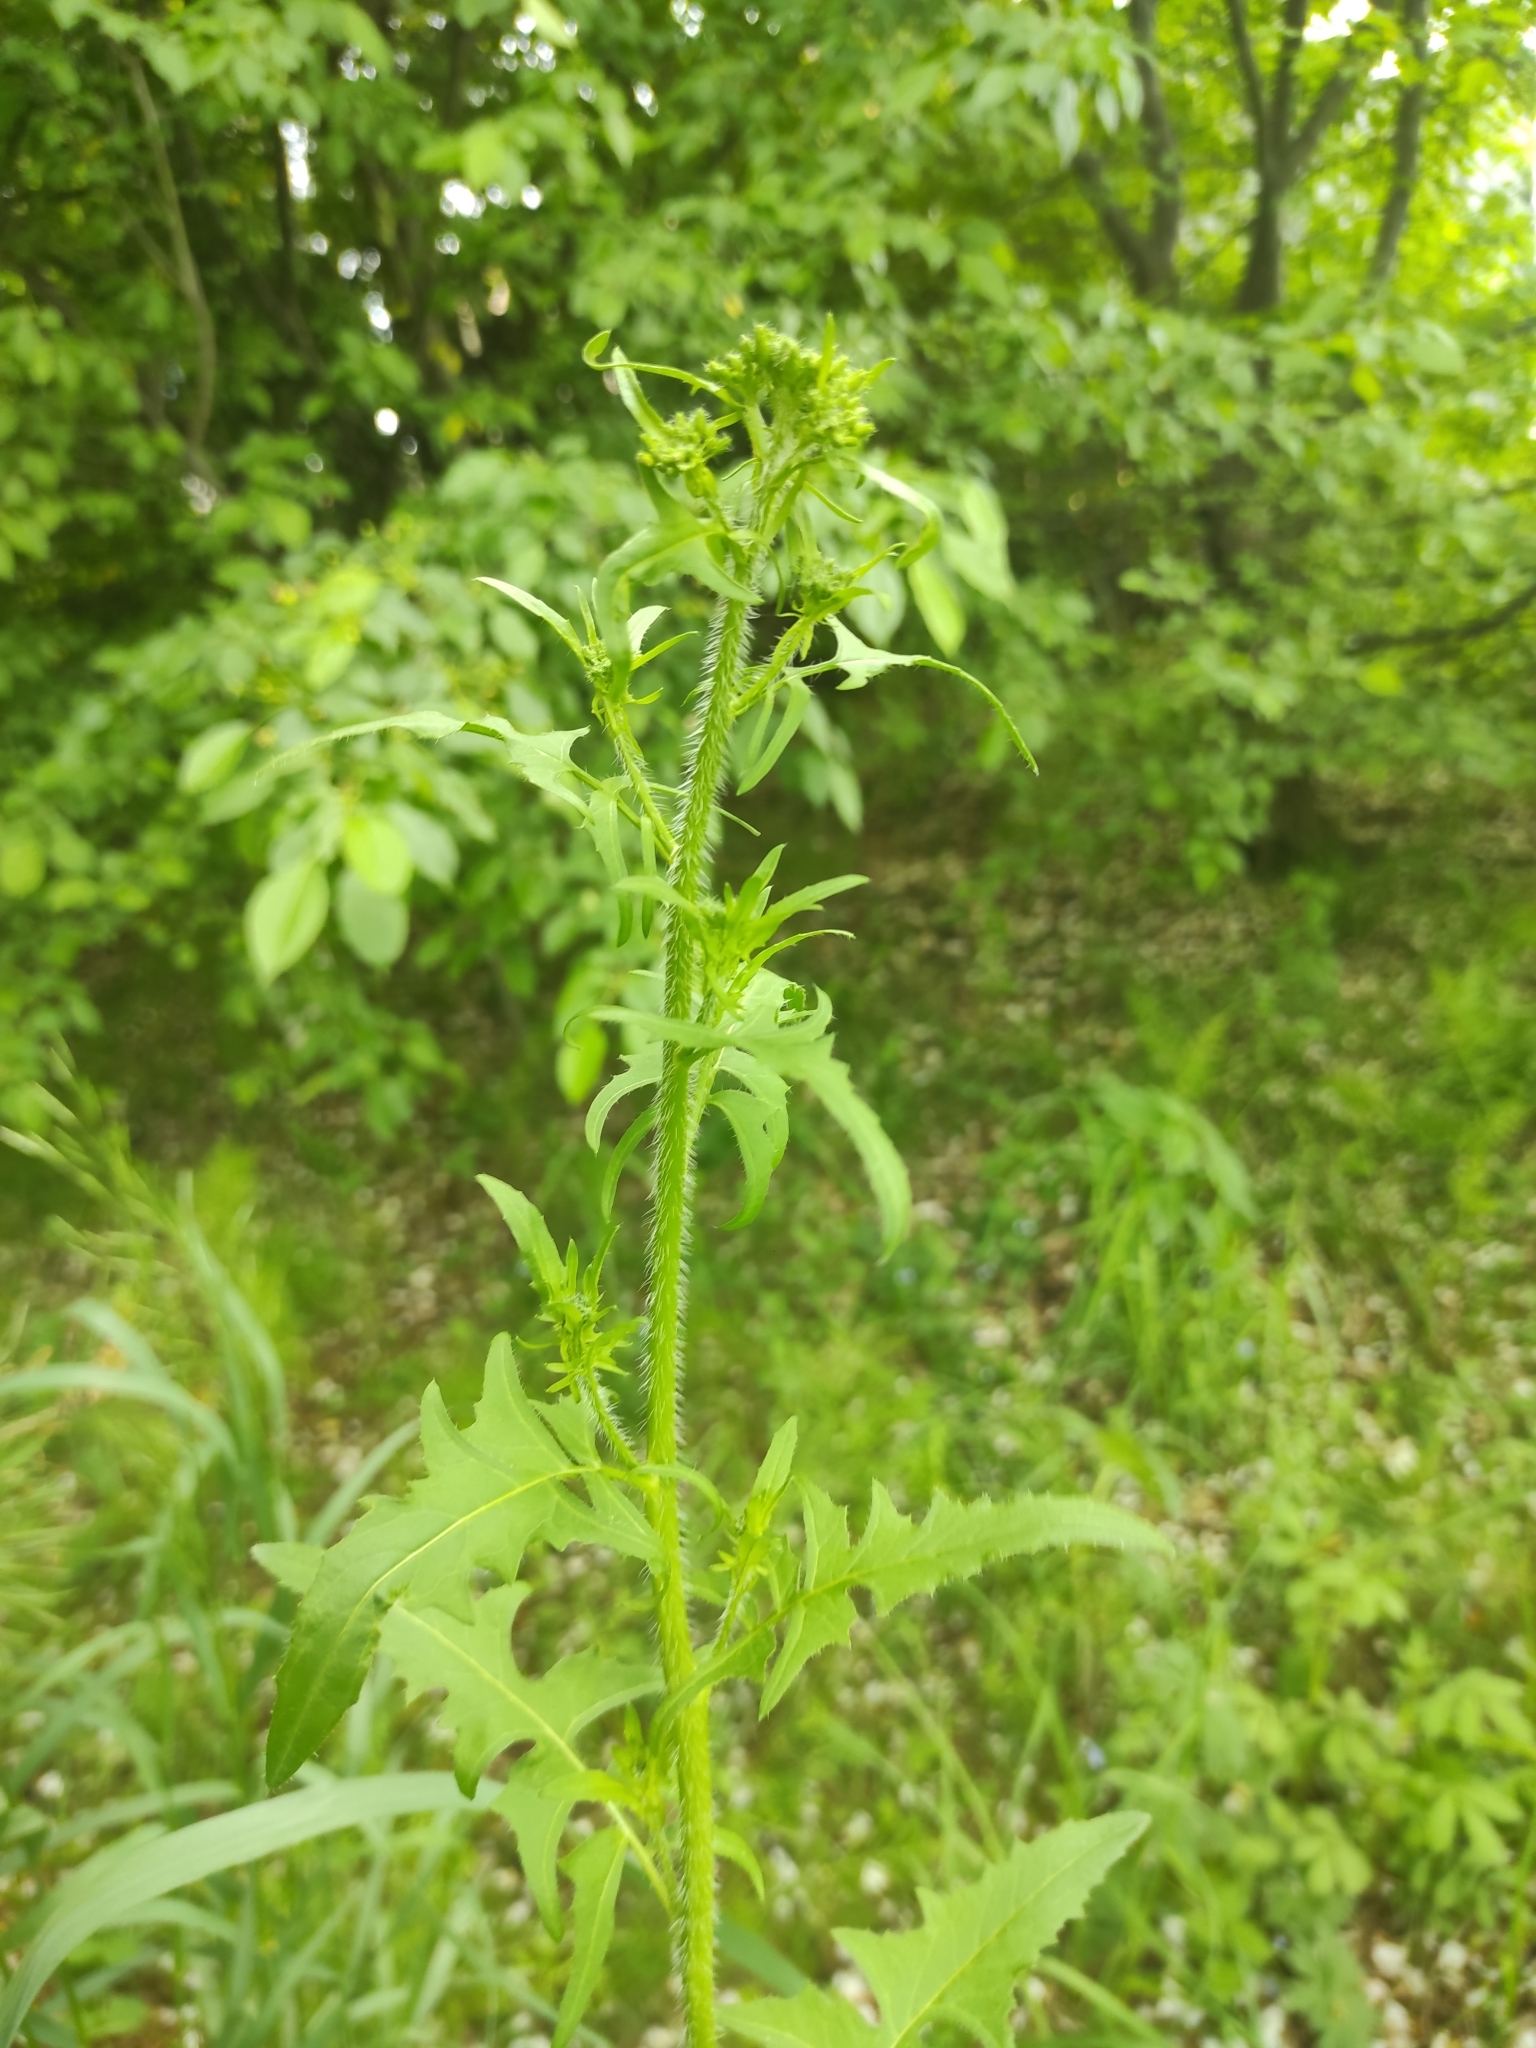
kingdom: Plantae
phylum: Tracheophyta
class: Magnoliopsida
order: Brassicales
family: Brassicaceae
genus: Sisymbrium
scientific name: Sisymbrium loeselii
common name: False london-rocket
